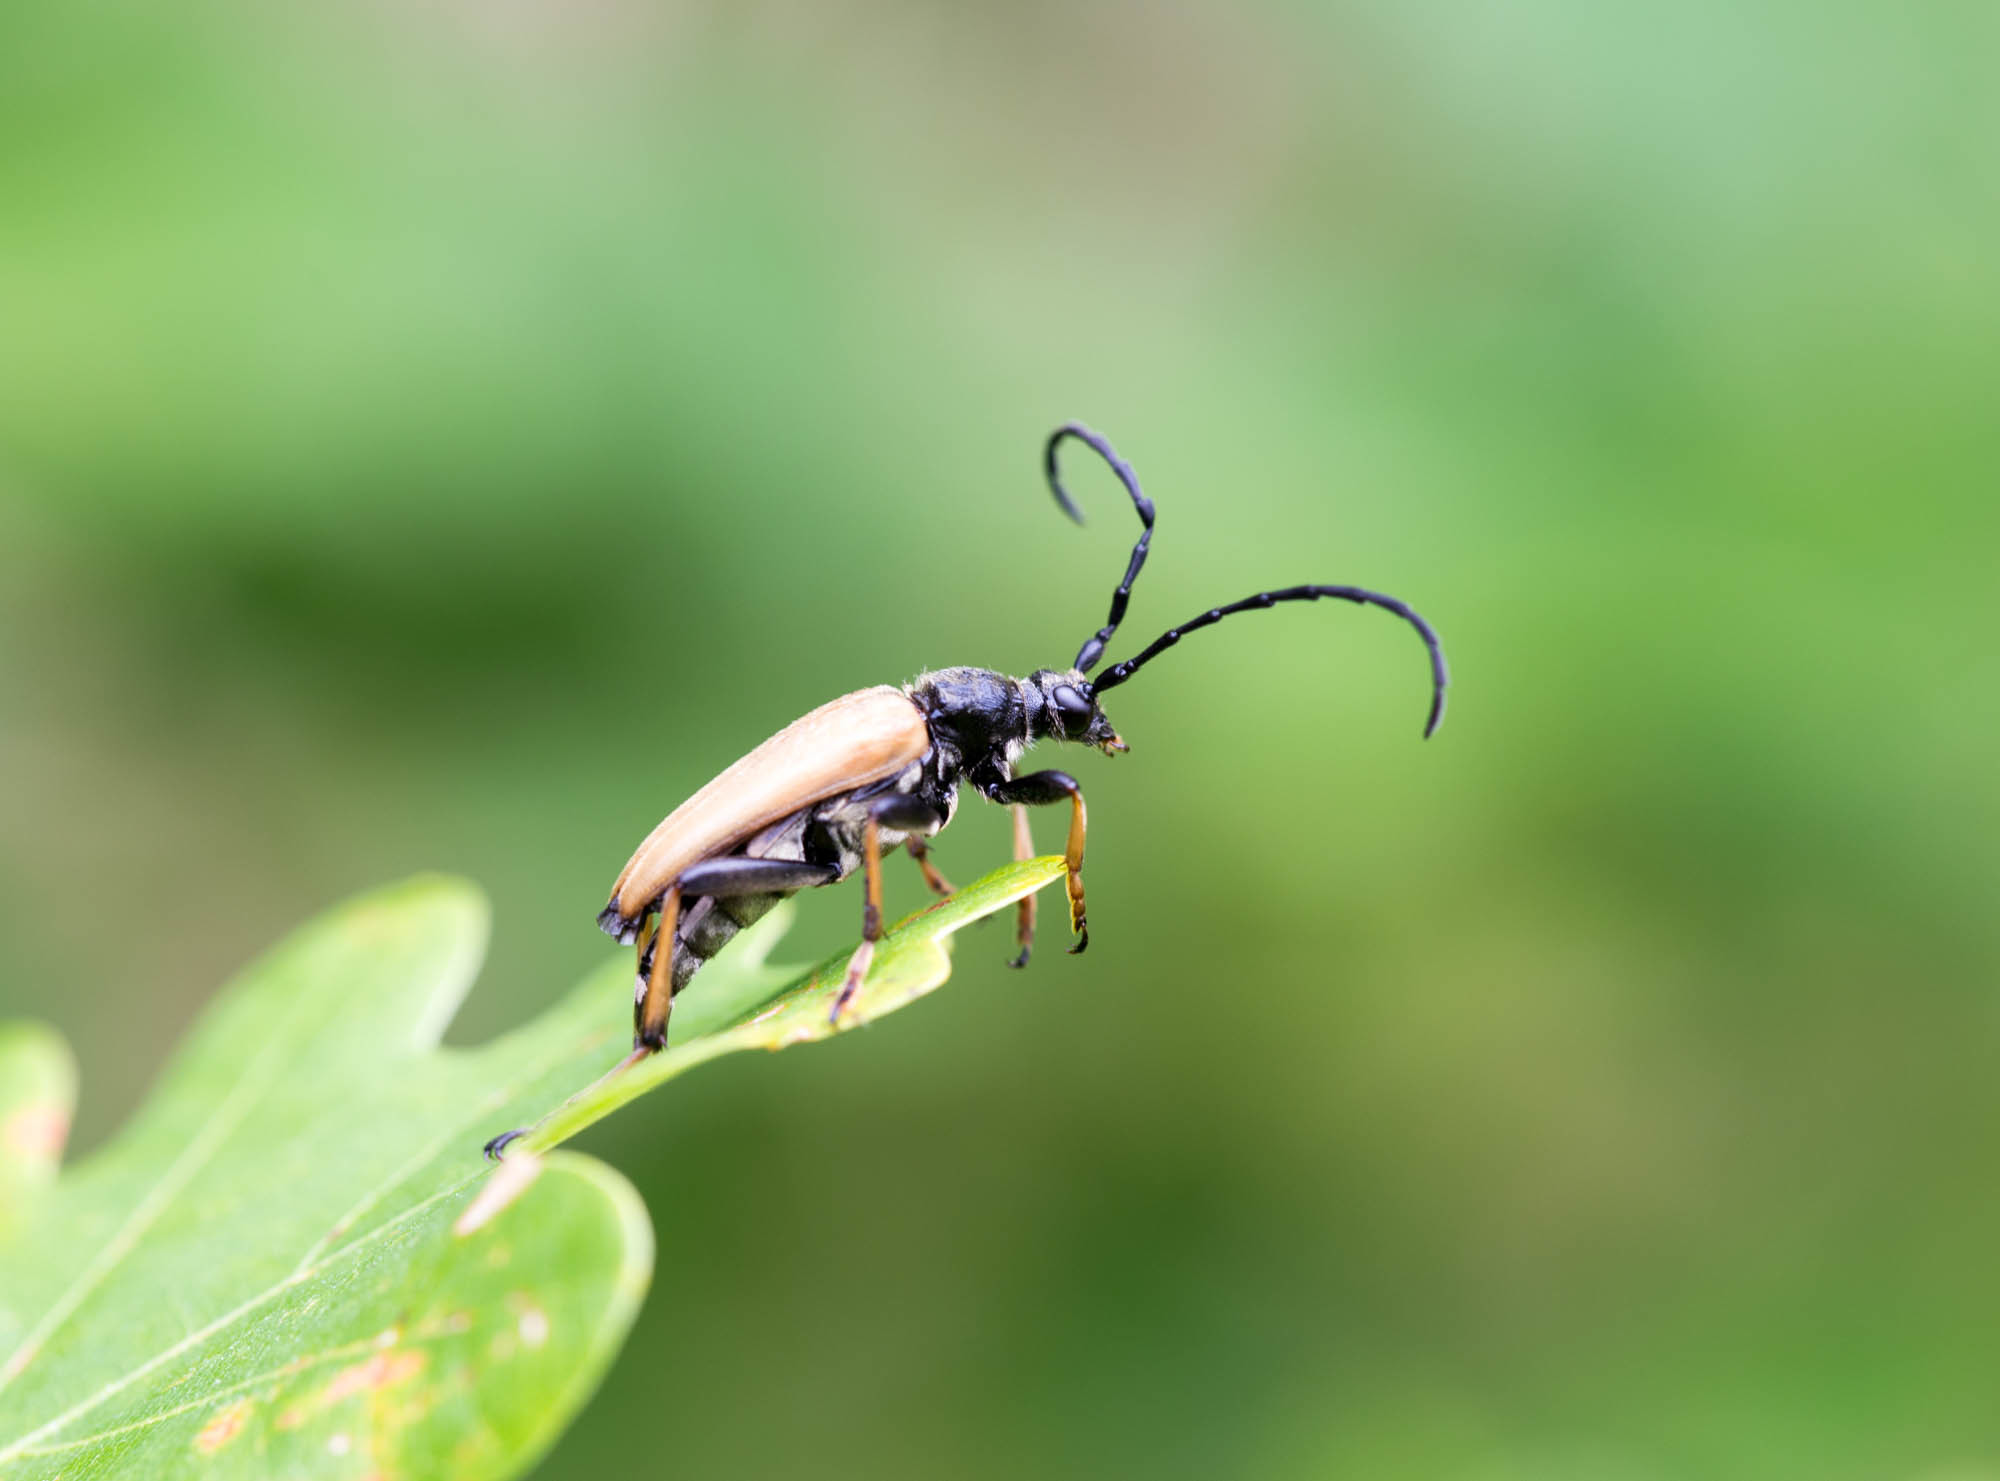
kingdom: Animalia
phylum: Arthropoda
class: Insecta
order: Coleoptera
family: Cerambycidae
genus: Stictoleptura
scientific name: Stictoleptura rubra
